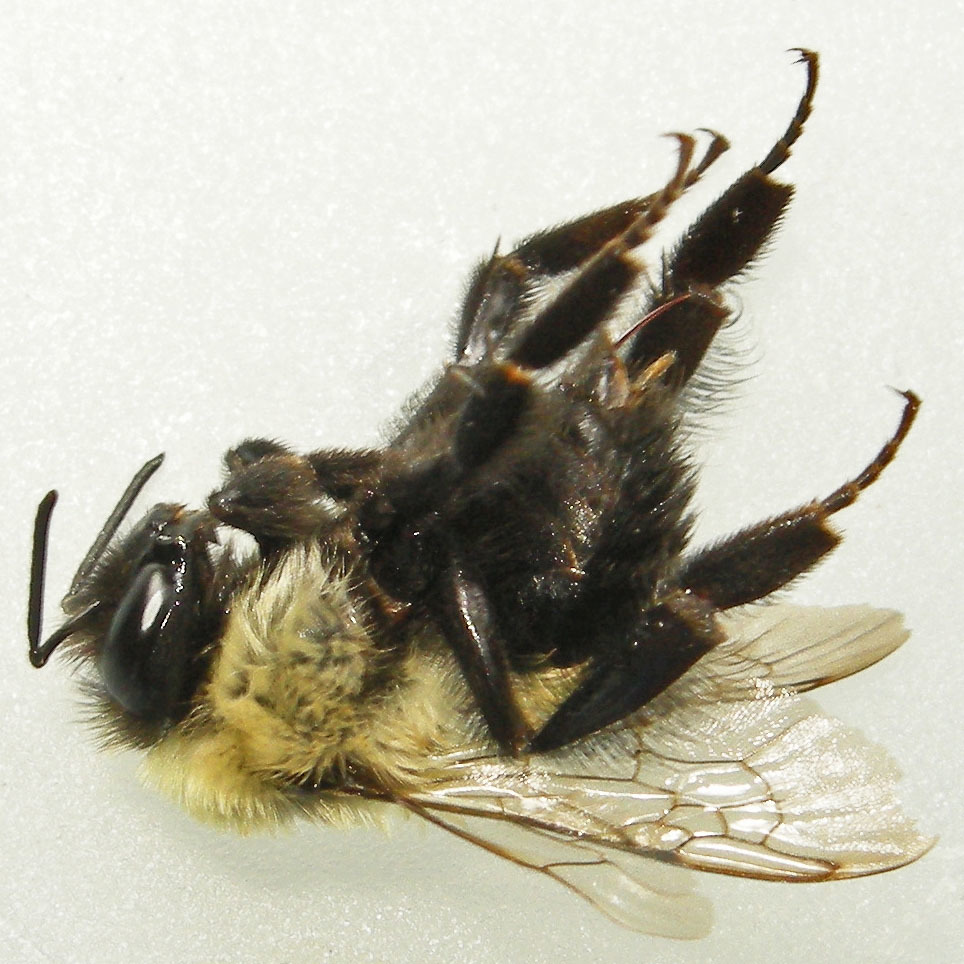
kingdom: Animalia
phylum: Arthropoda
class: Insecta
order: Hymenoptera
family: Apidae
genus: Bombus
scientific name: Bombus impatiens
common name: Common eastern bumble bee
